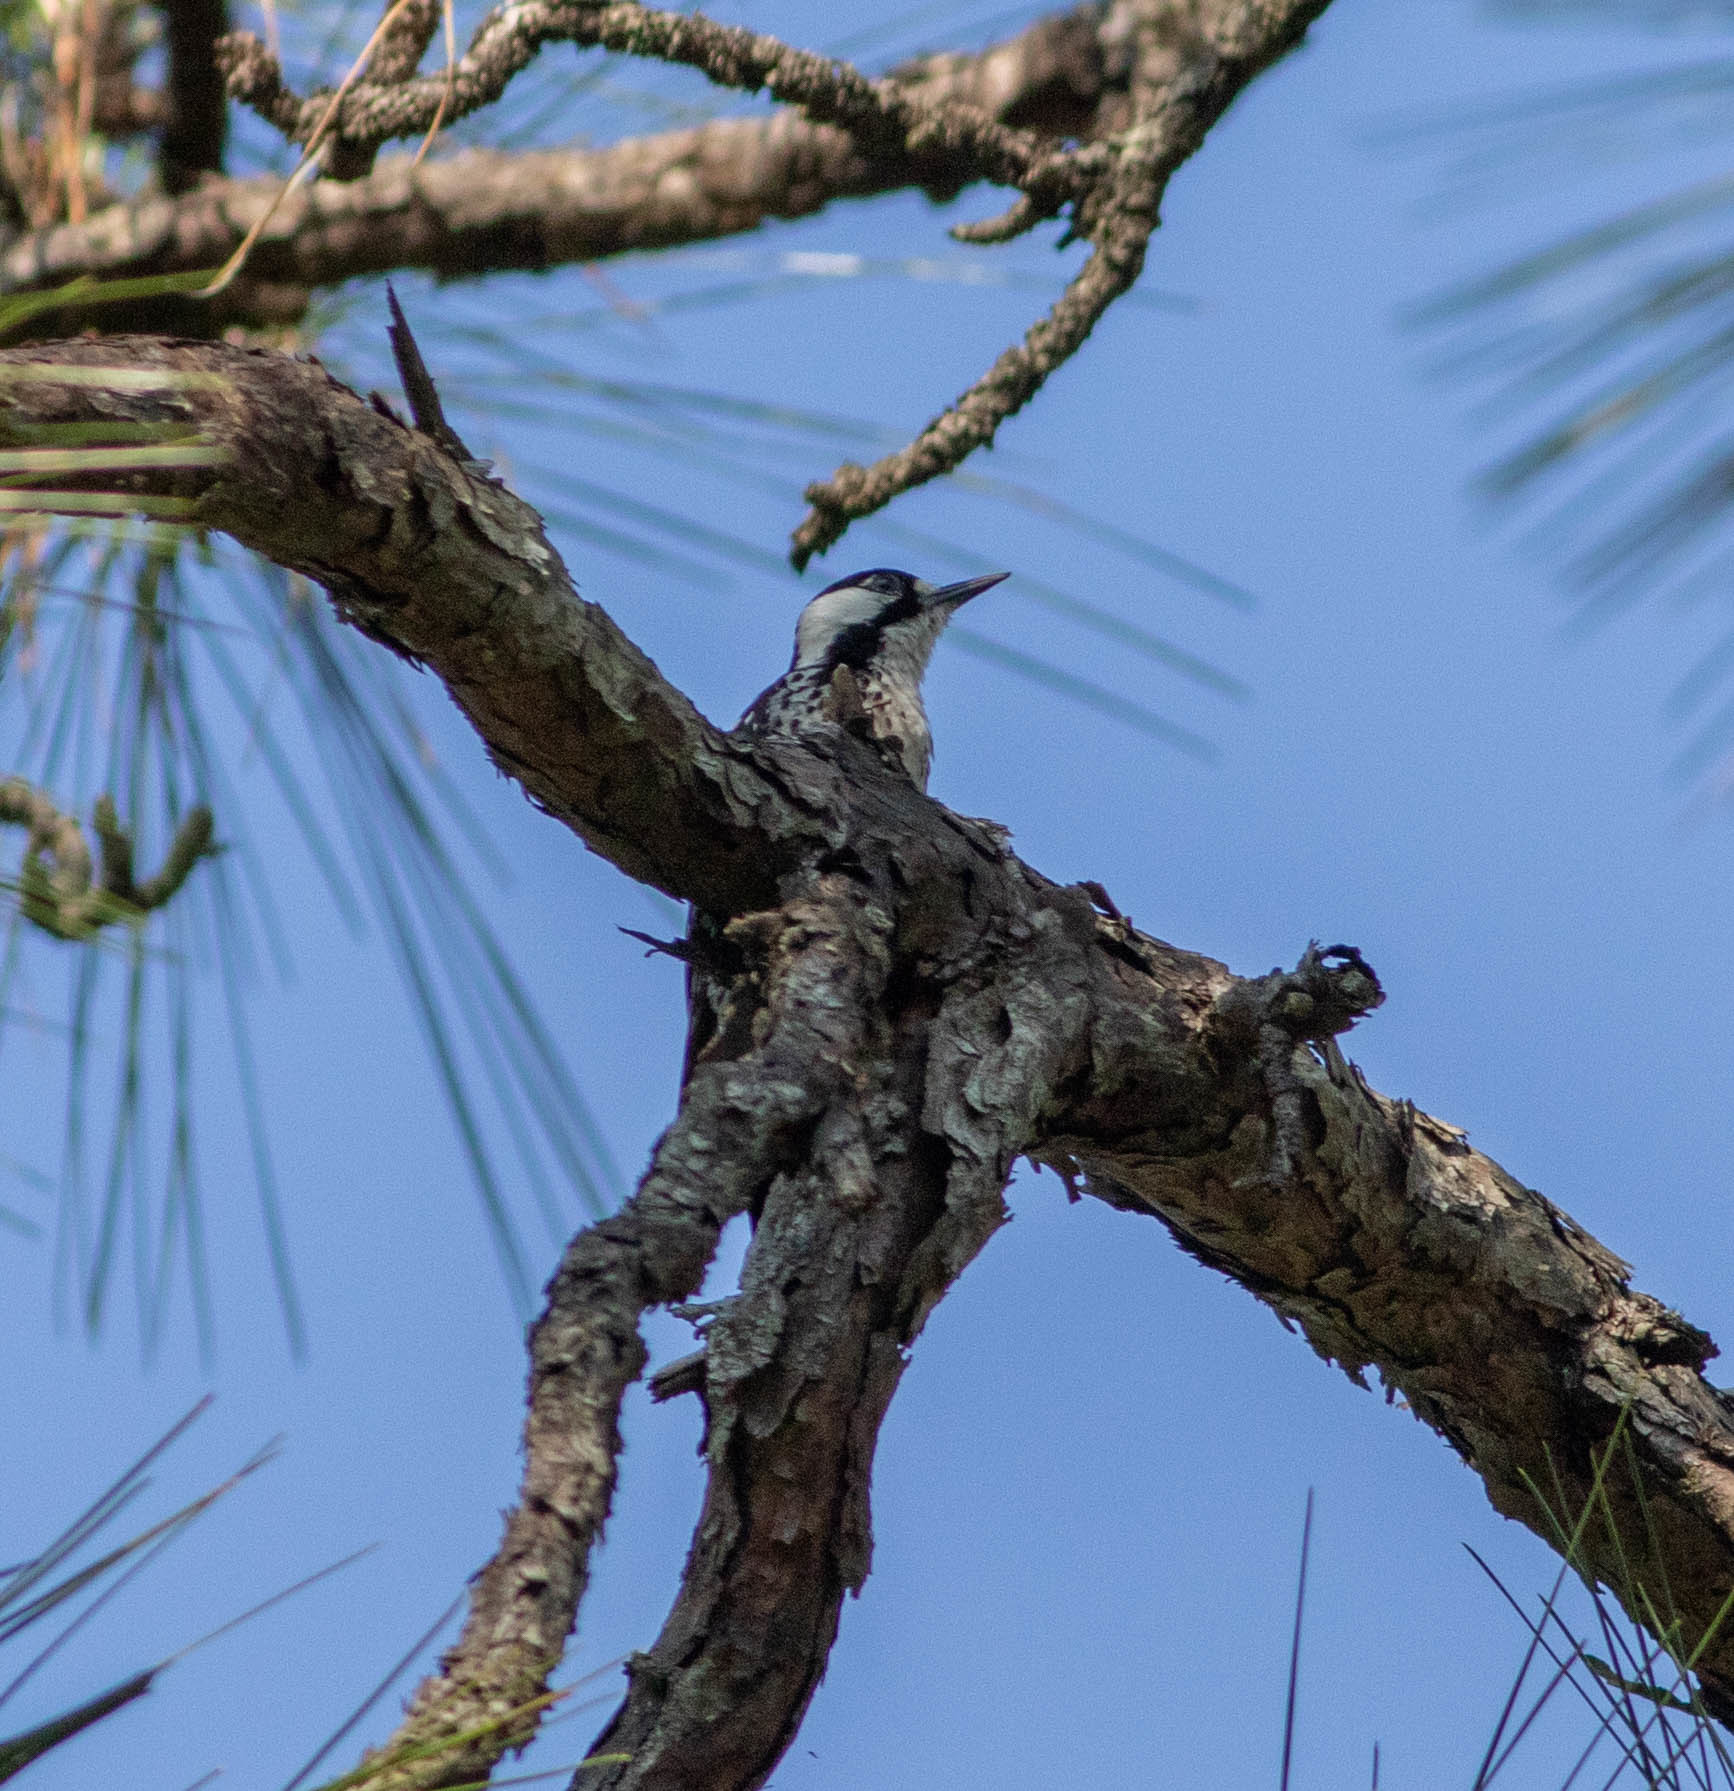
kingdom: Animalia
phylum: Chordata
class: Aves
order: Piciformes
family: Picidae
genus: Leuconotopicus
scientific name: Leuconotopicus borealis
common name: Red-cockaded woodpecker
